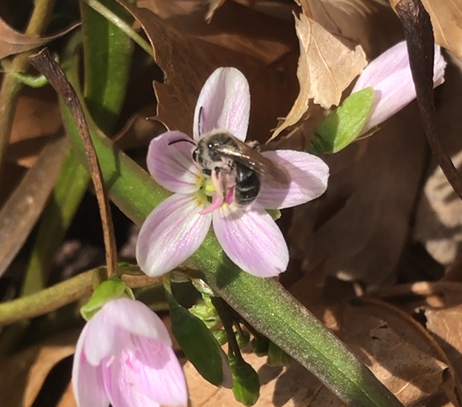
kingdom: Animalia
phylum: Arthropoda
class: Insecta
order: Hymenoptera
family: Andrenidae
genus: Andrena
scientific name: Andrena erigeniae
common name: Spring beauty miner
